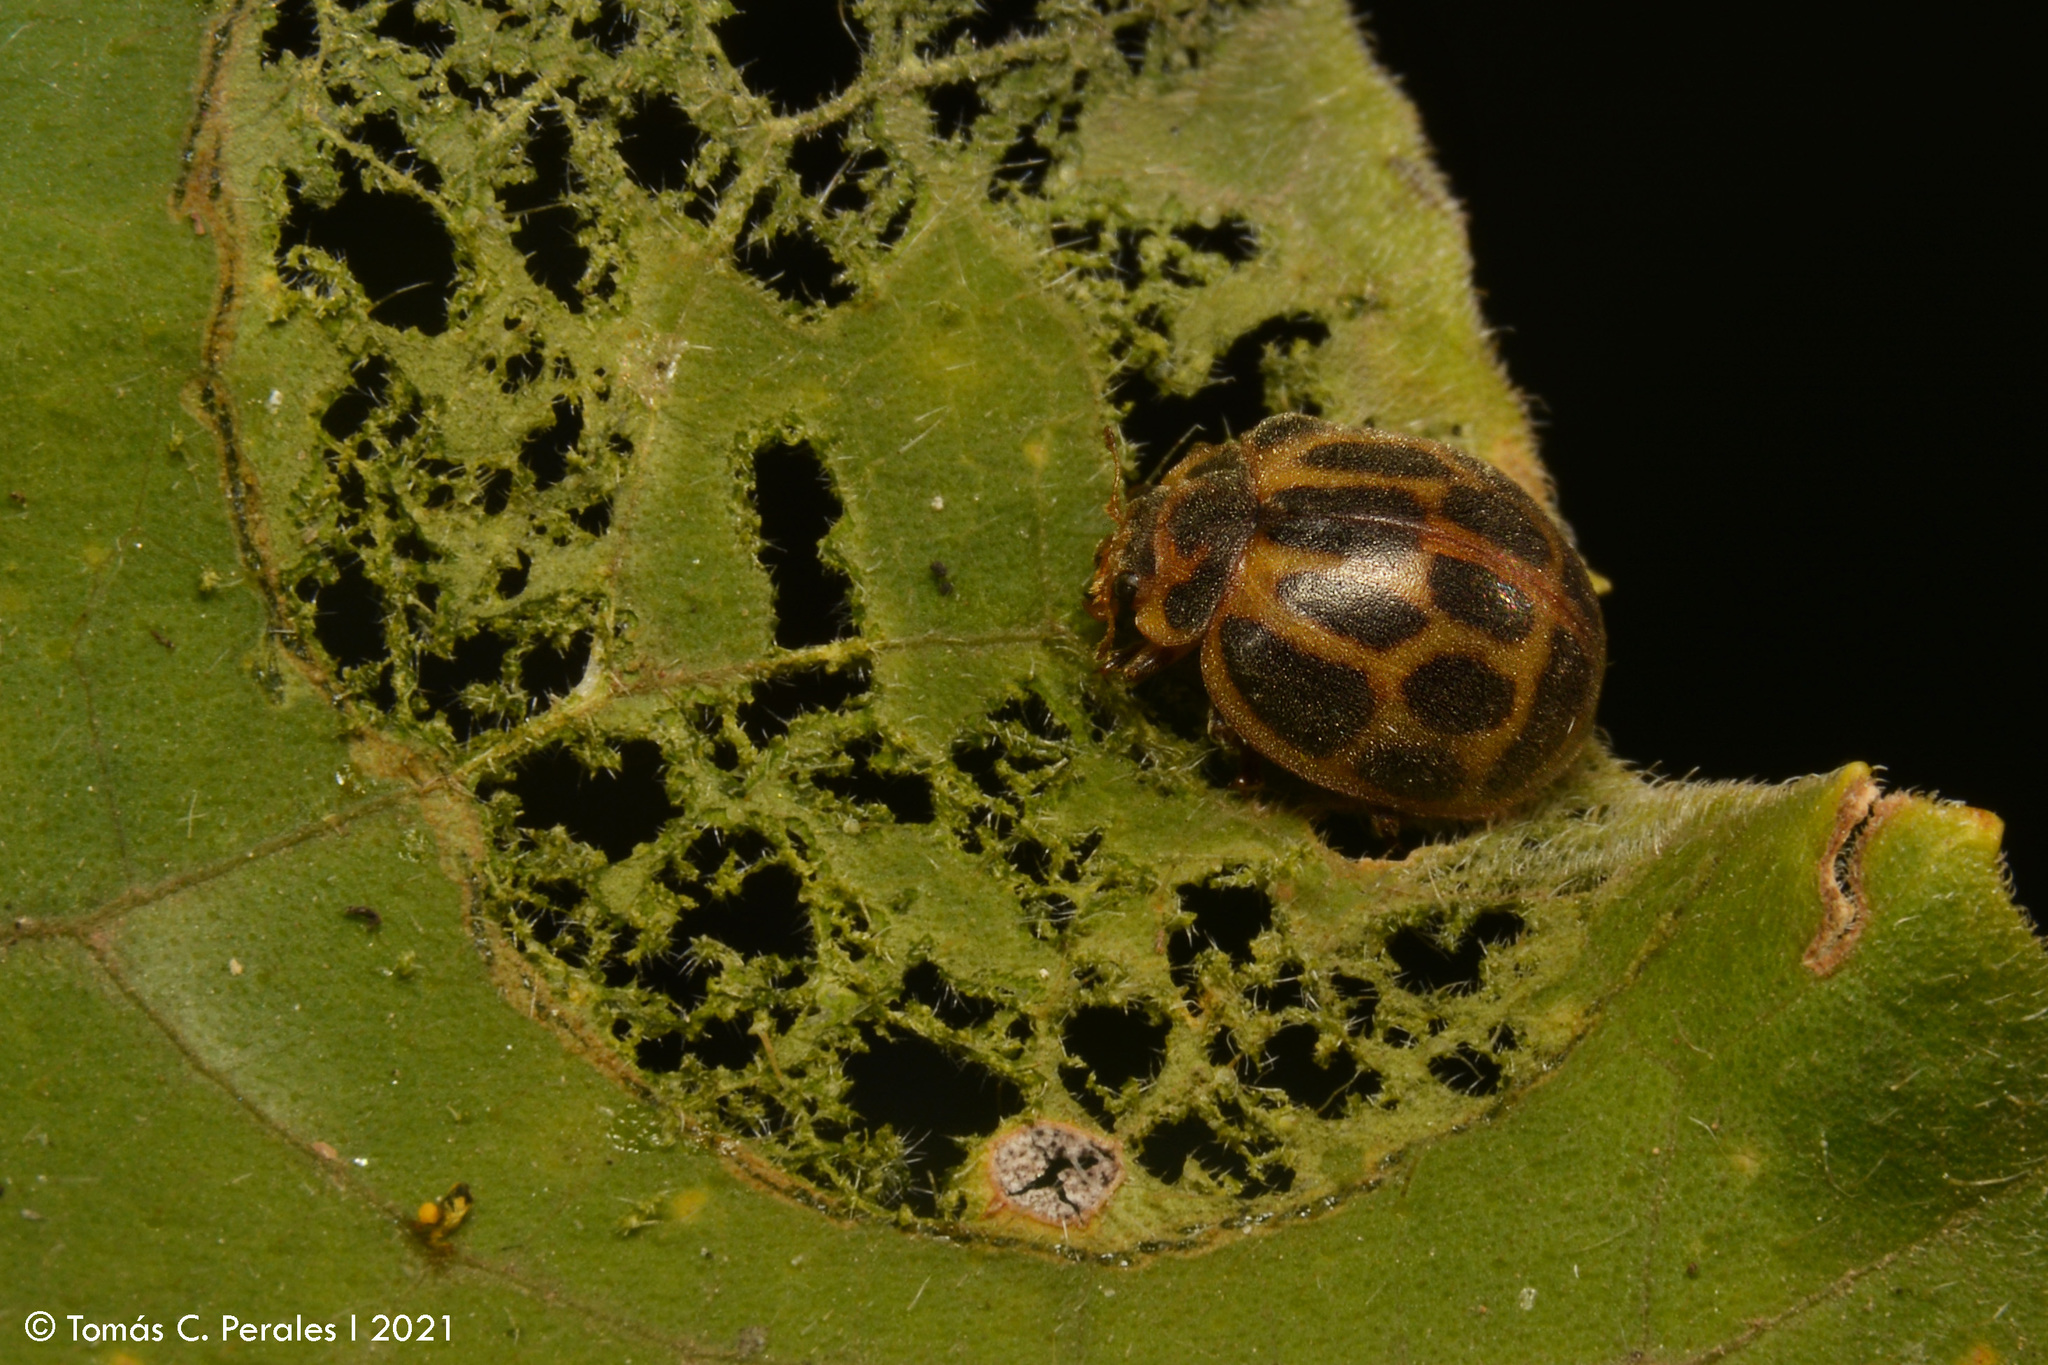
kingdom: Animalia
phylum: Arthropoda
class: Insecta
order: Coleoptera
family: Coccinellidae
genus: Epilachna
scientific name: Epilachna
